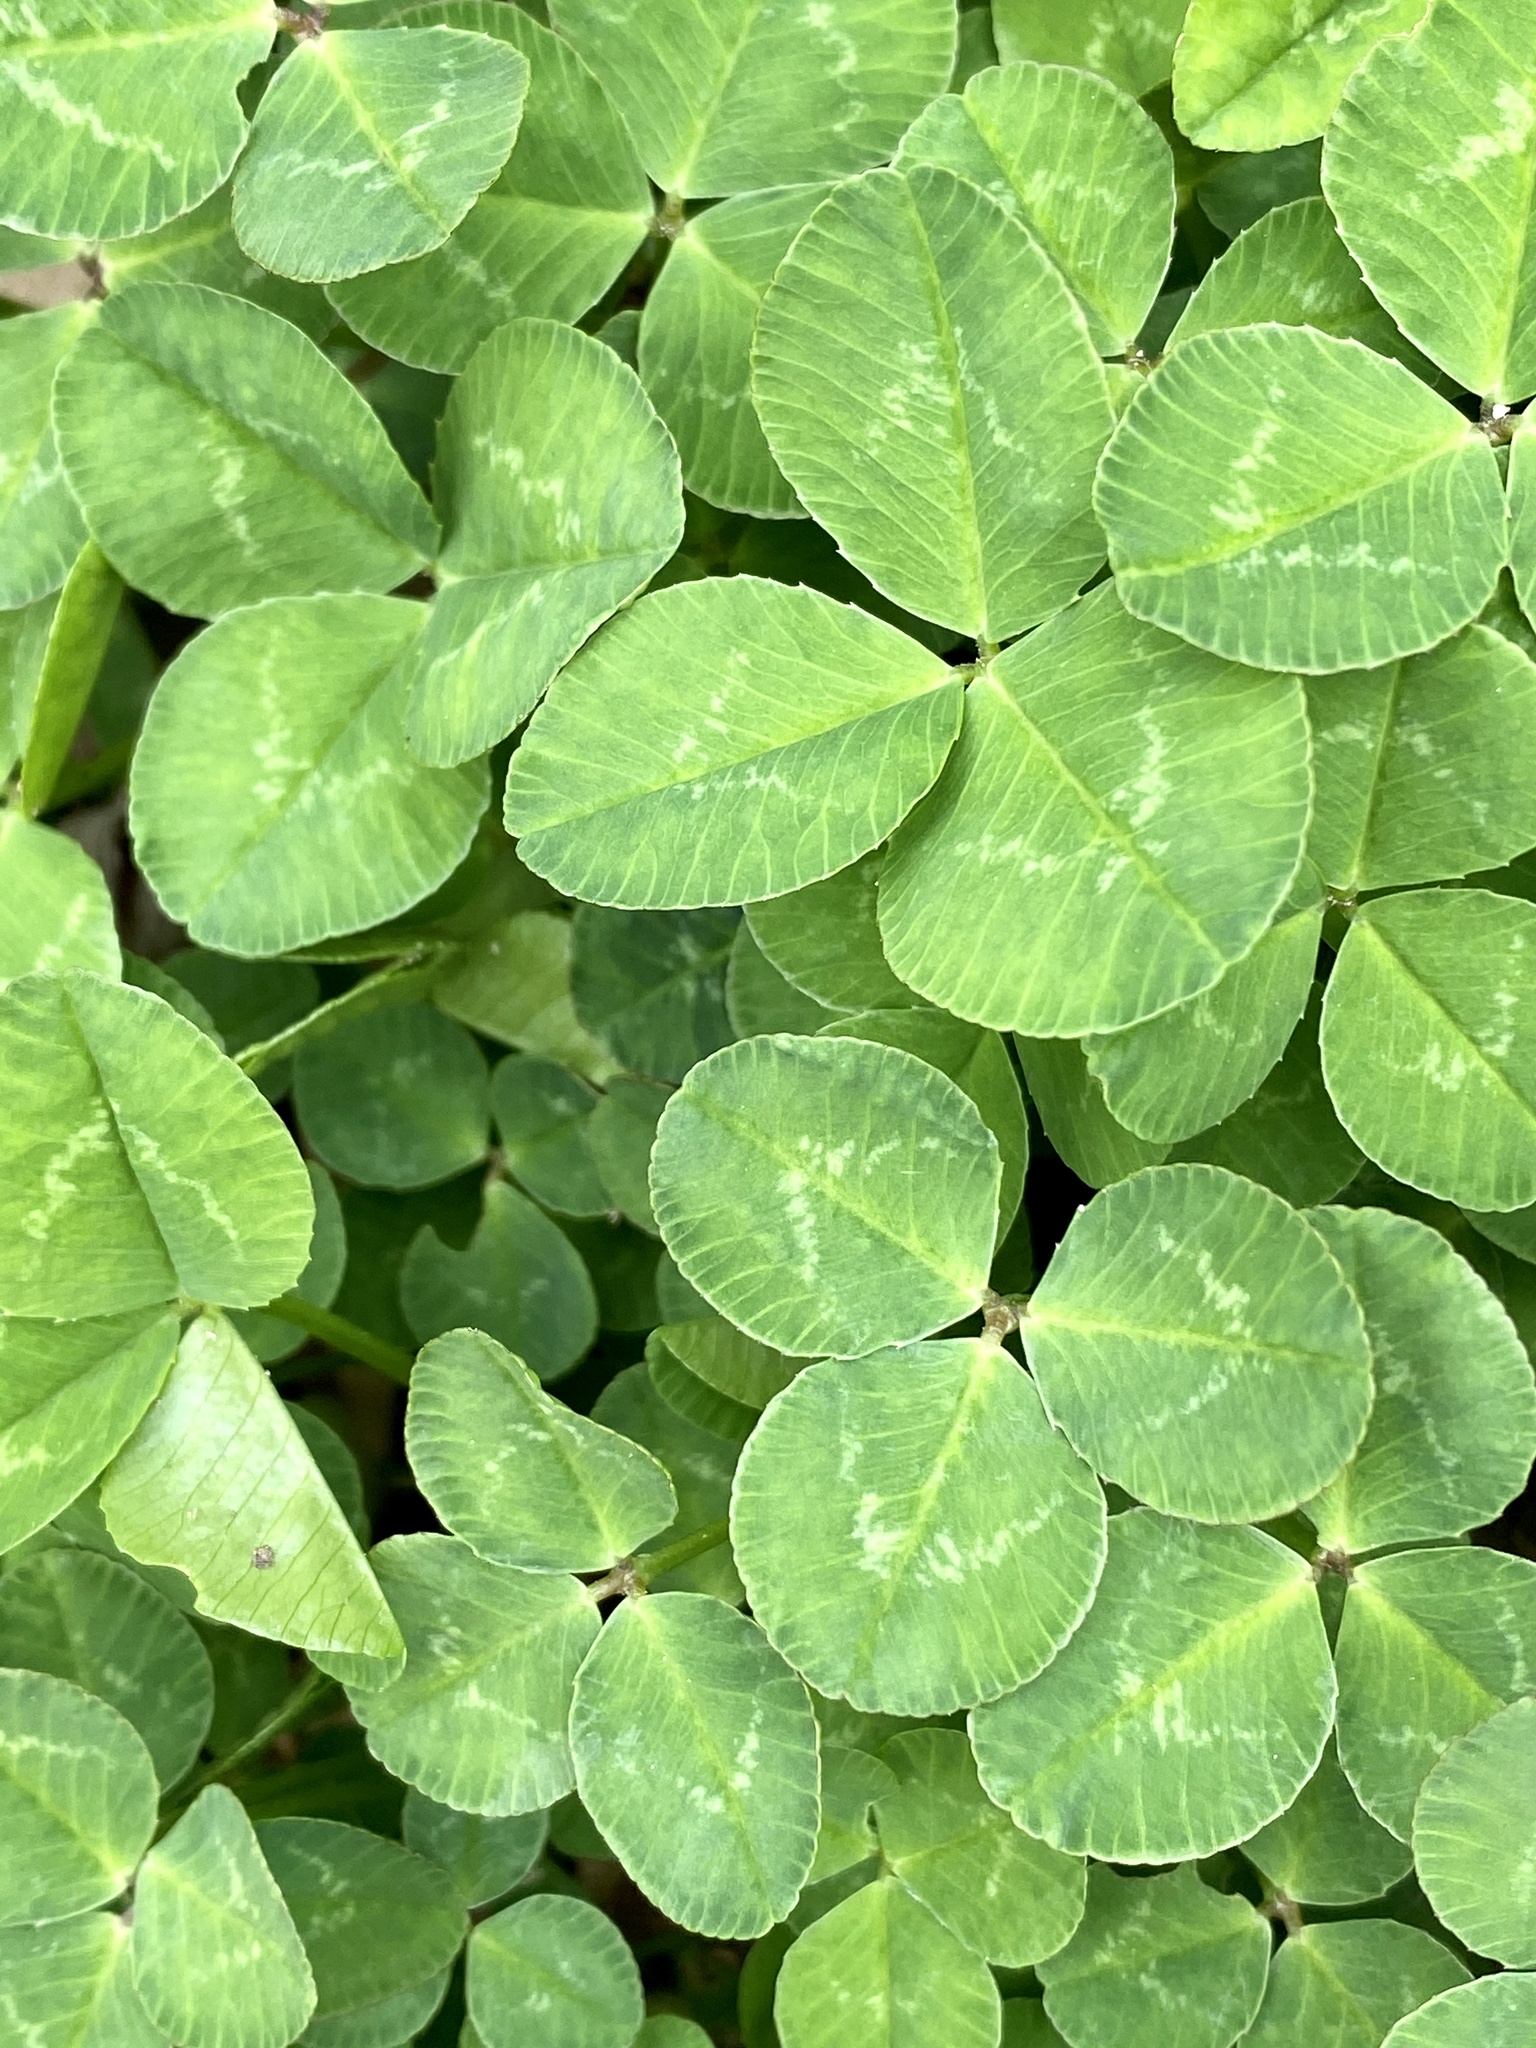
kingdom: Plantae
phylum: Tracheophyta
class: Magnoliopsida
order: Fabales
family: Fabaceae
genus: Trifolium
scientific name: Trifolium repens
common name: White clover
